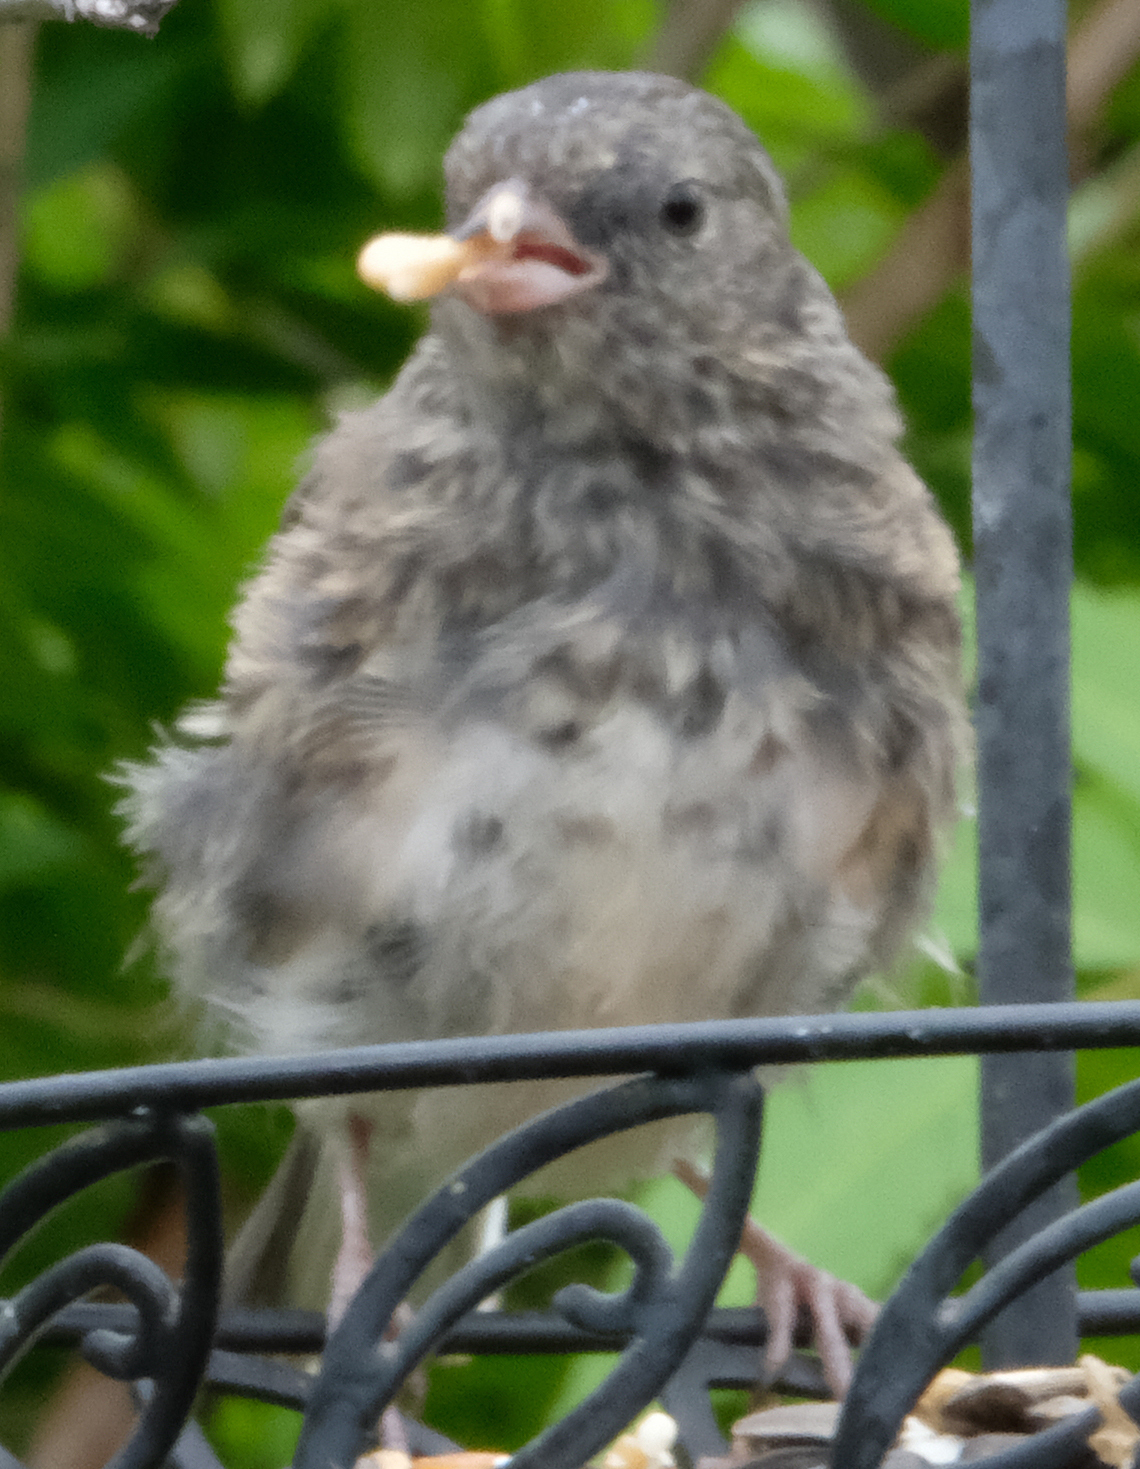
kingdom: Animalia
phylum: Chordata
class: Aves
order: Passeriformes
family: Passerellidae
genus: Junco
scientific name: Junco hyemalis
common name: Dark-eyed junco
